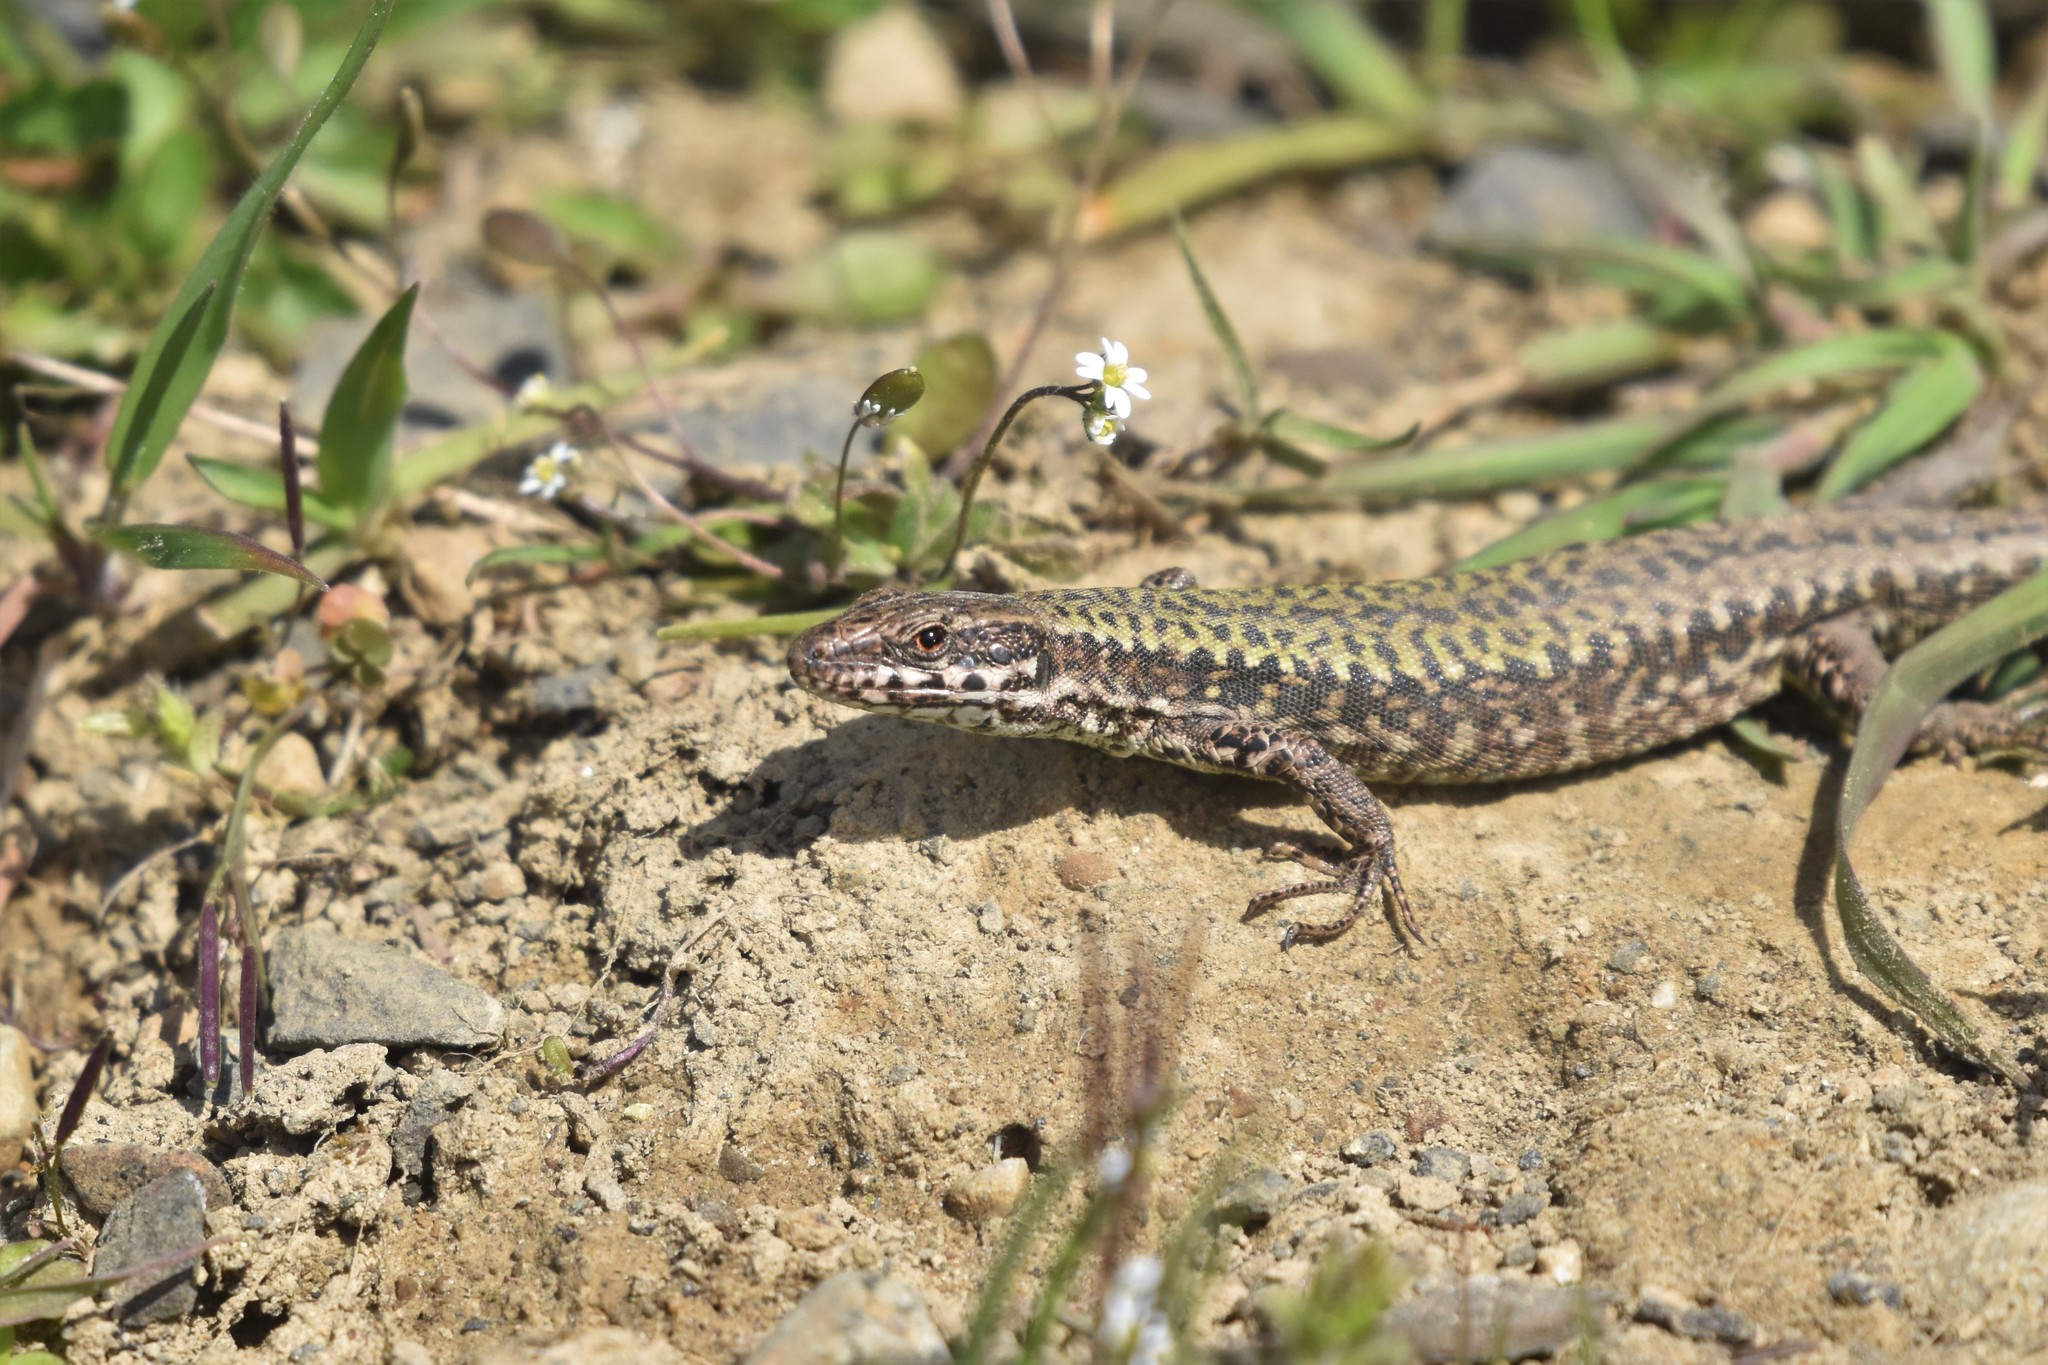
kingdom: Animalia
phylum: Chordata
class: Squamata
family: Lacertidae
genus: Podarcis
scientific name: Podarcis muralis
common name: Common wall lizard
